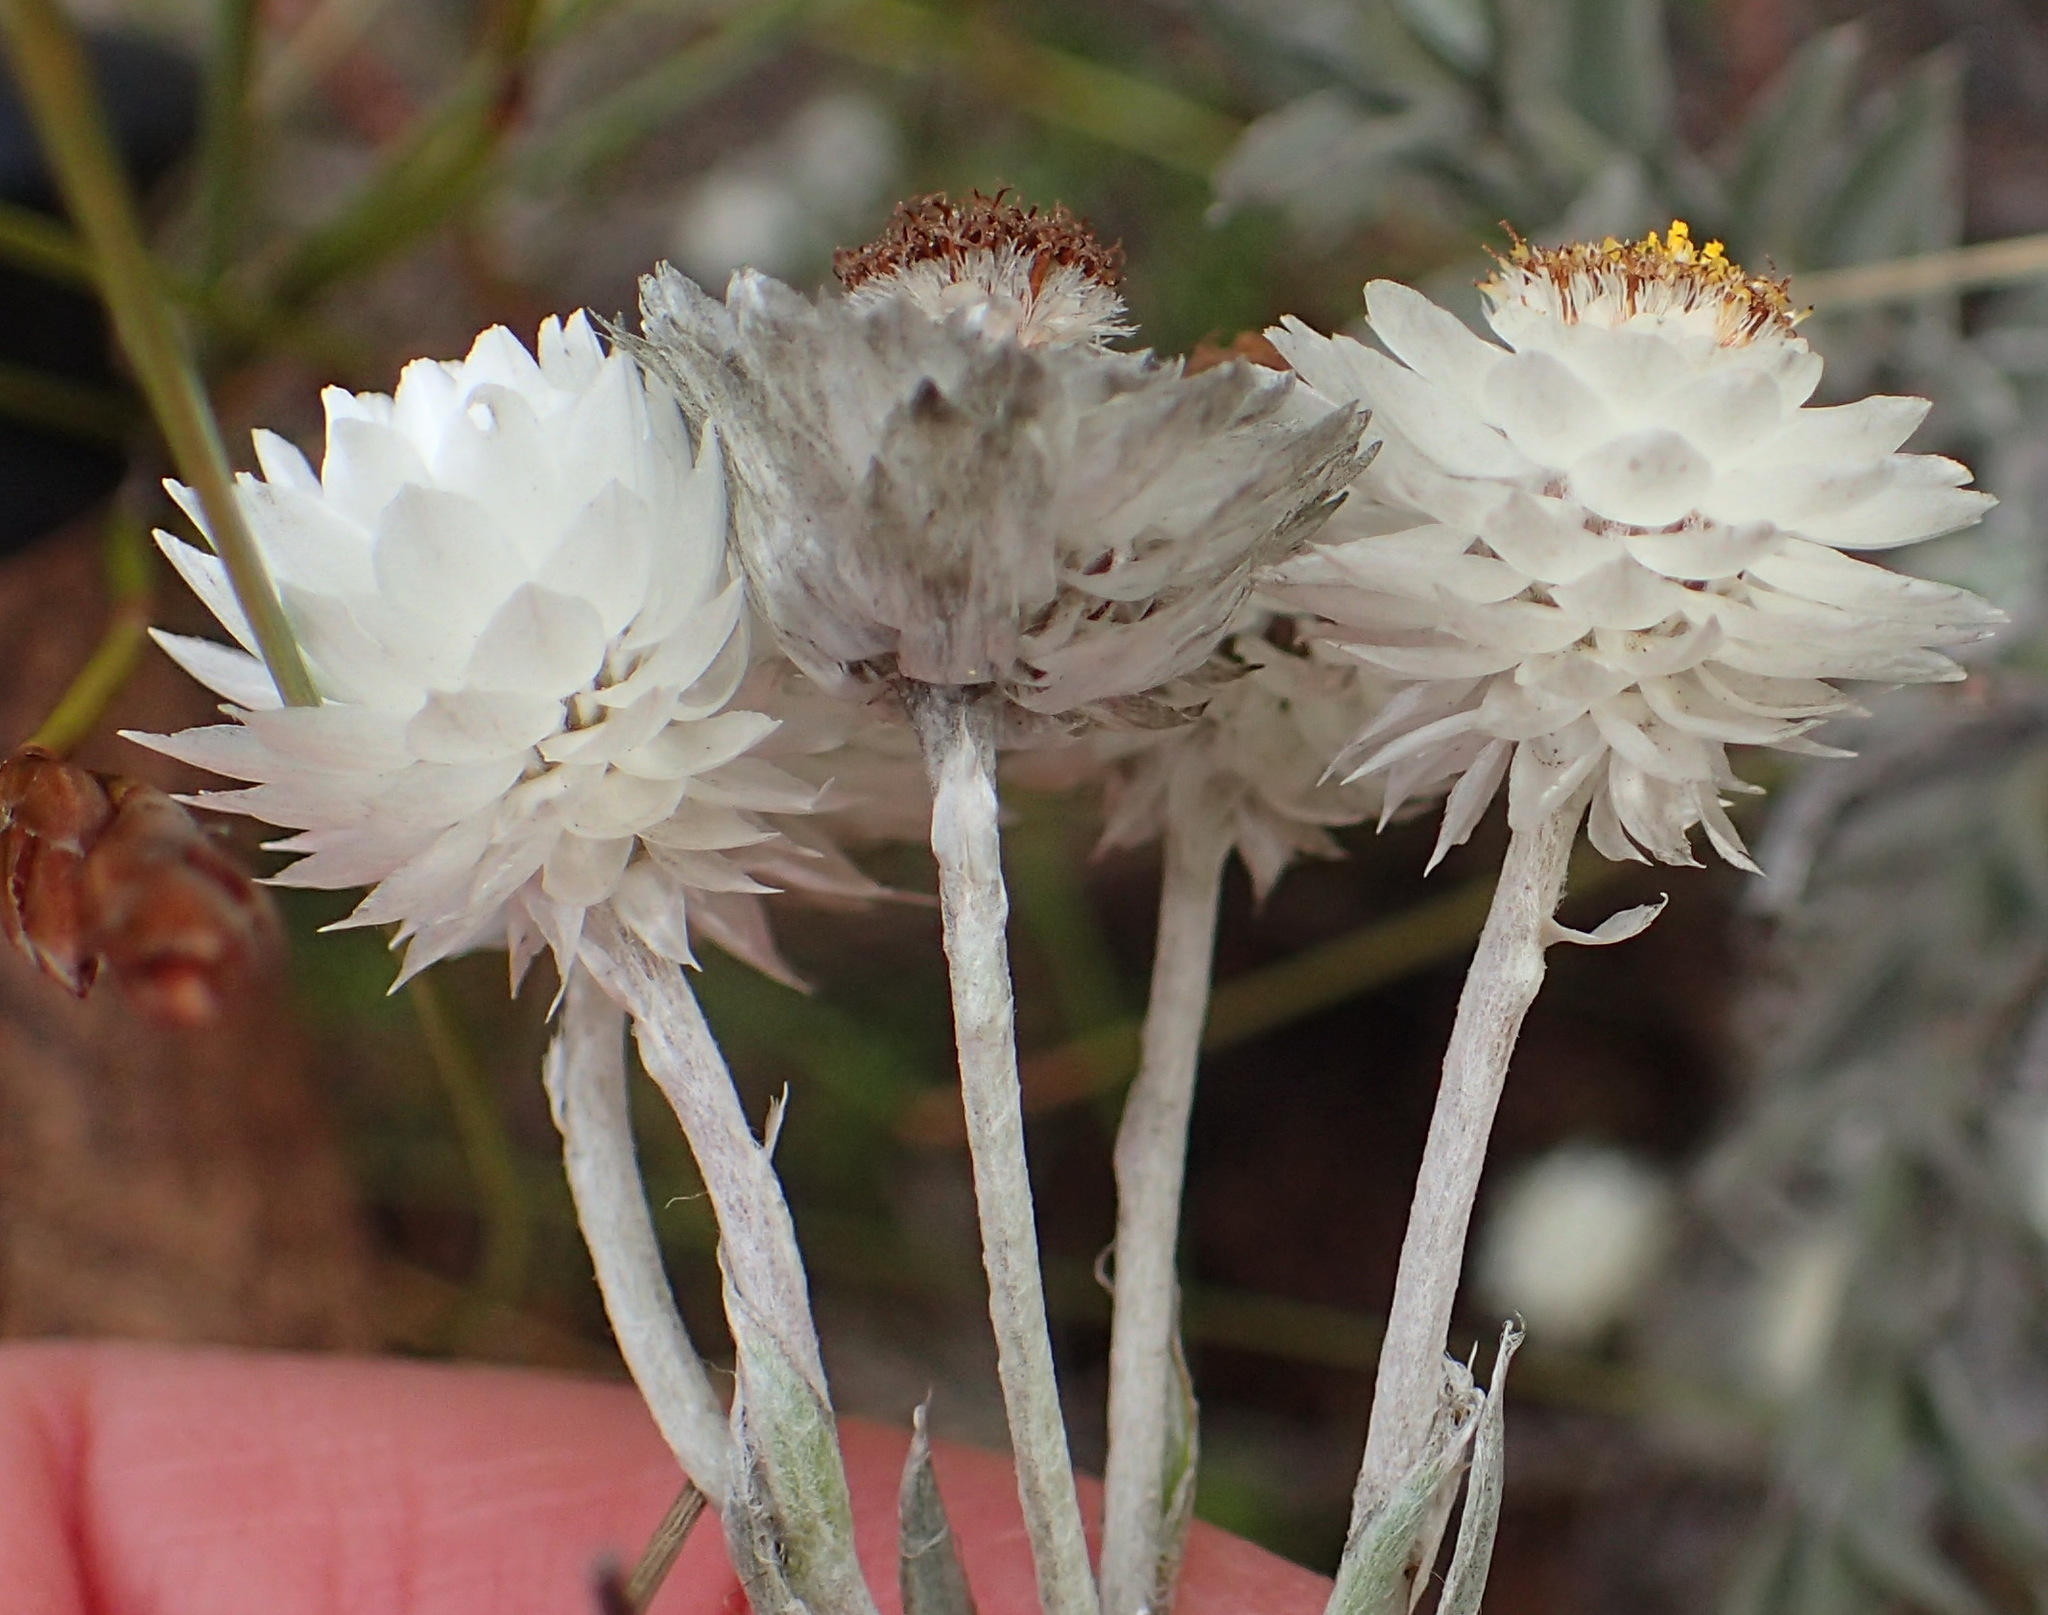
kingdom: Plantae
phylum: Tracheophyta
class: Magnoliopsida
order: Asterales
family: Asteraceae
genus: Achyranthemum
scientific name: Achyranthemum paniculatum
